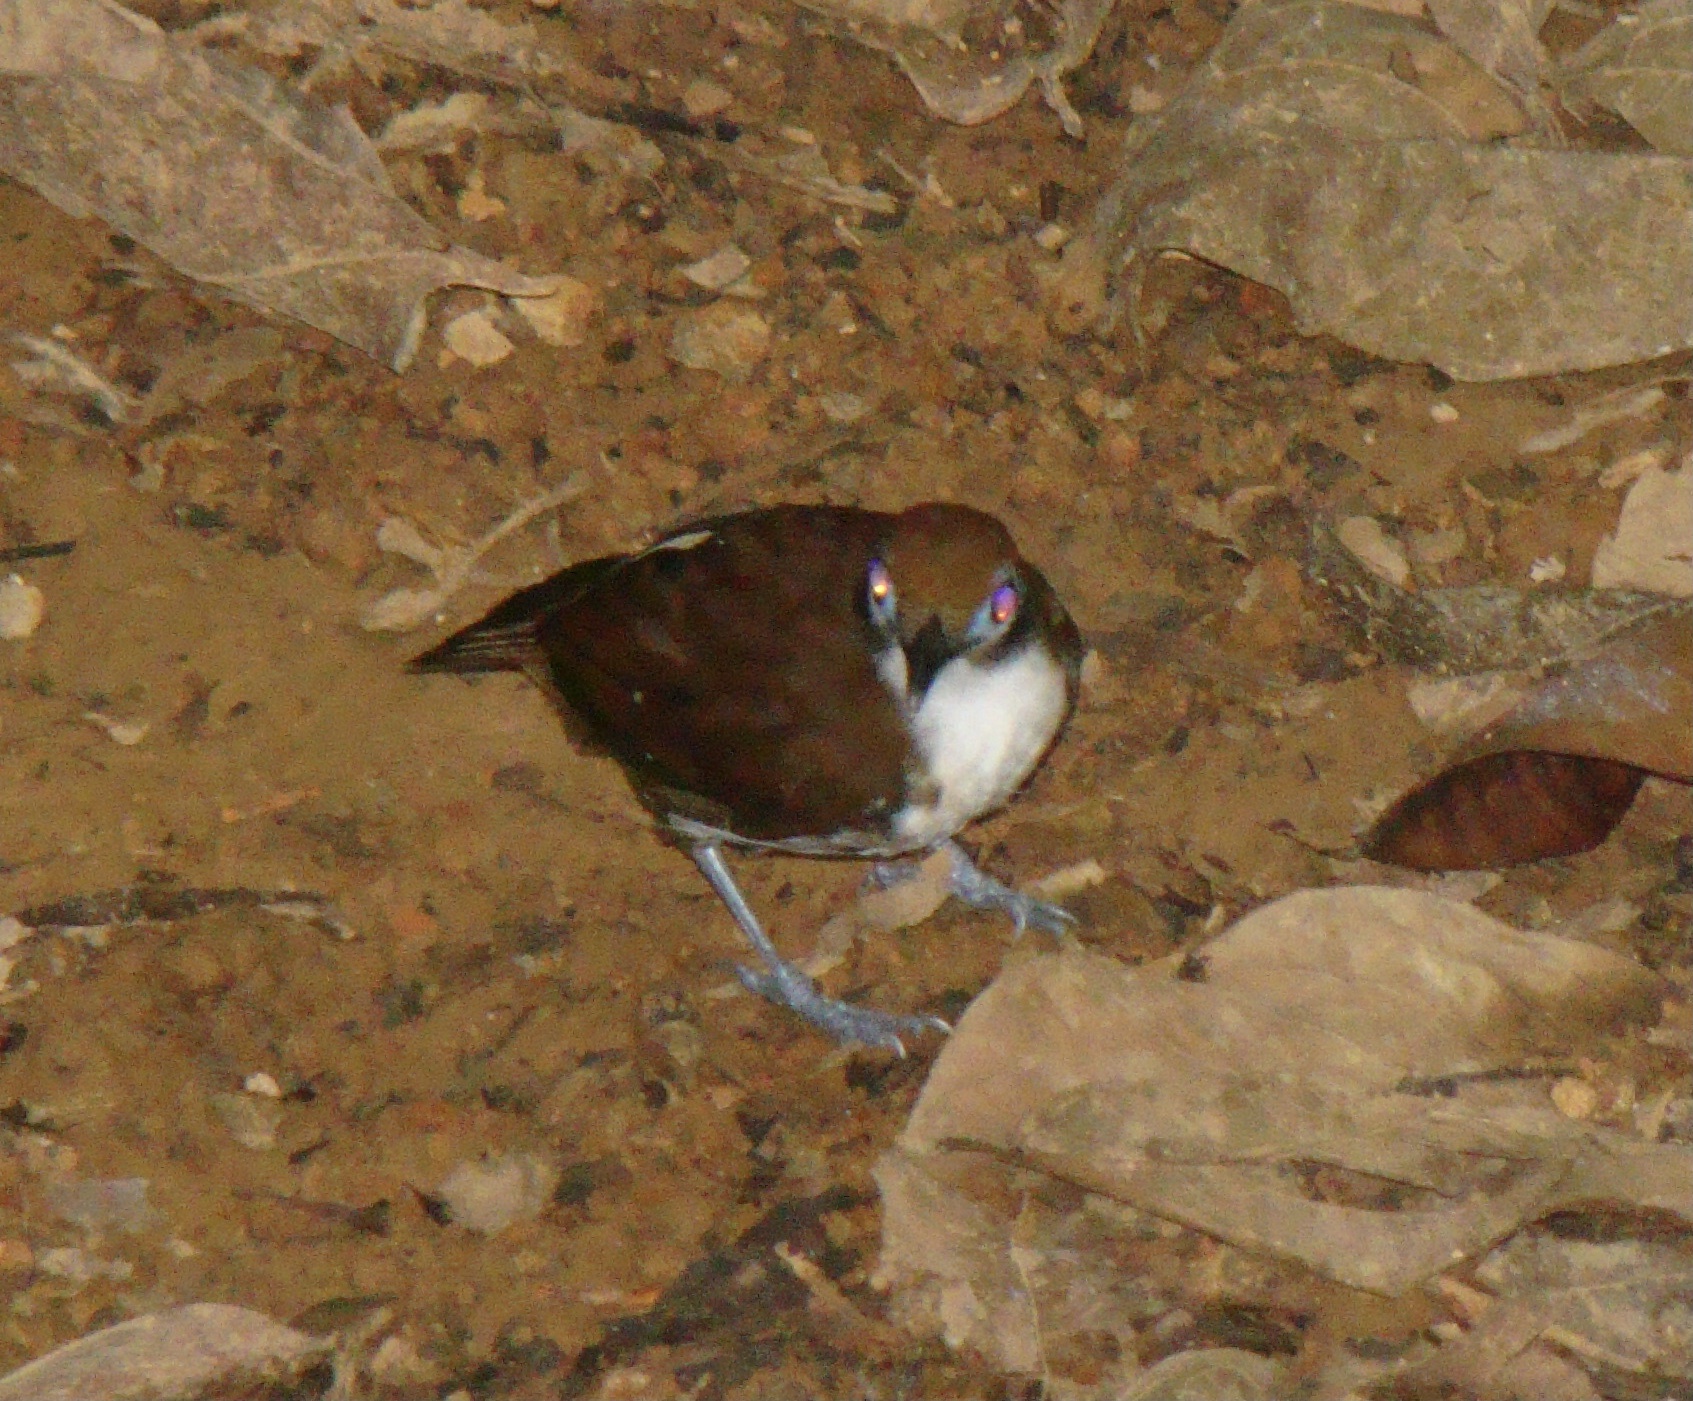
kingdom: Animalia
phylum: Chordata
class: Aves
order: Passeriformes
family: Thamnophilidae
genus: Gymnopithys
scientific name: Gymnopithys leucaspis
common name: White-cheeked antbird
